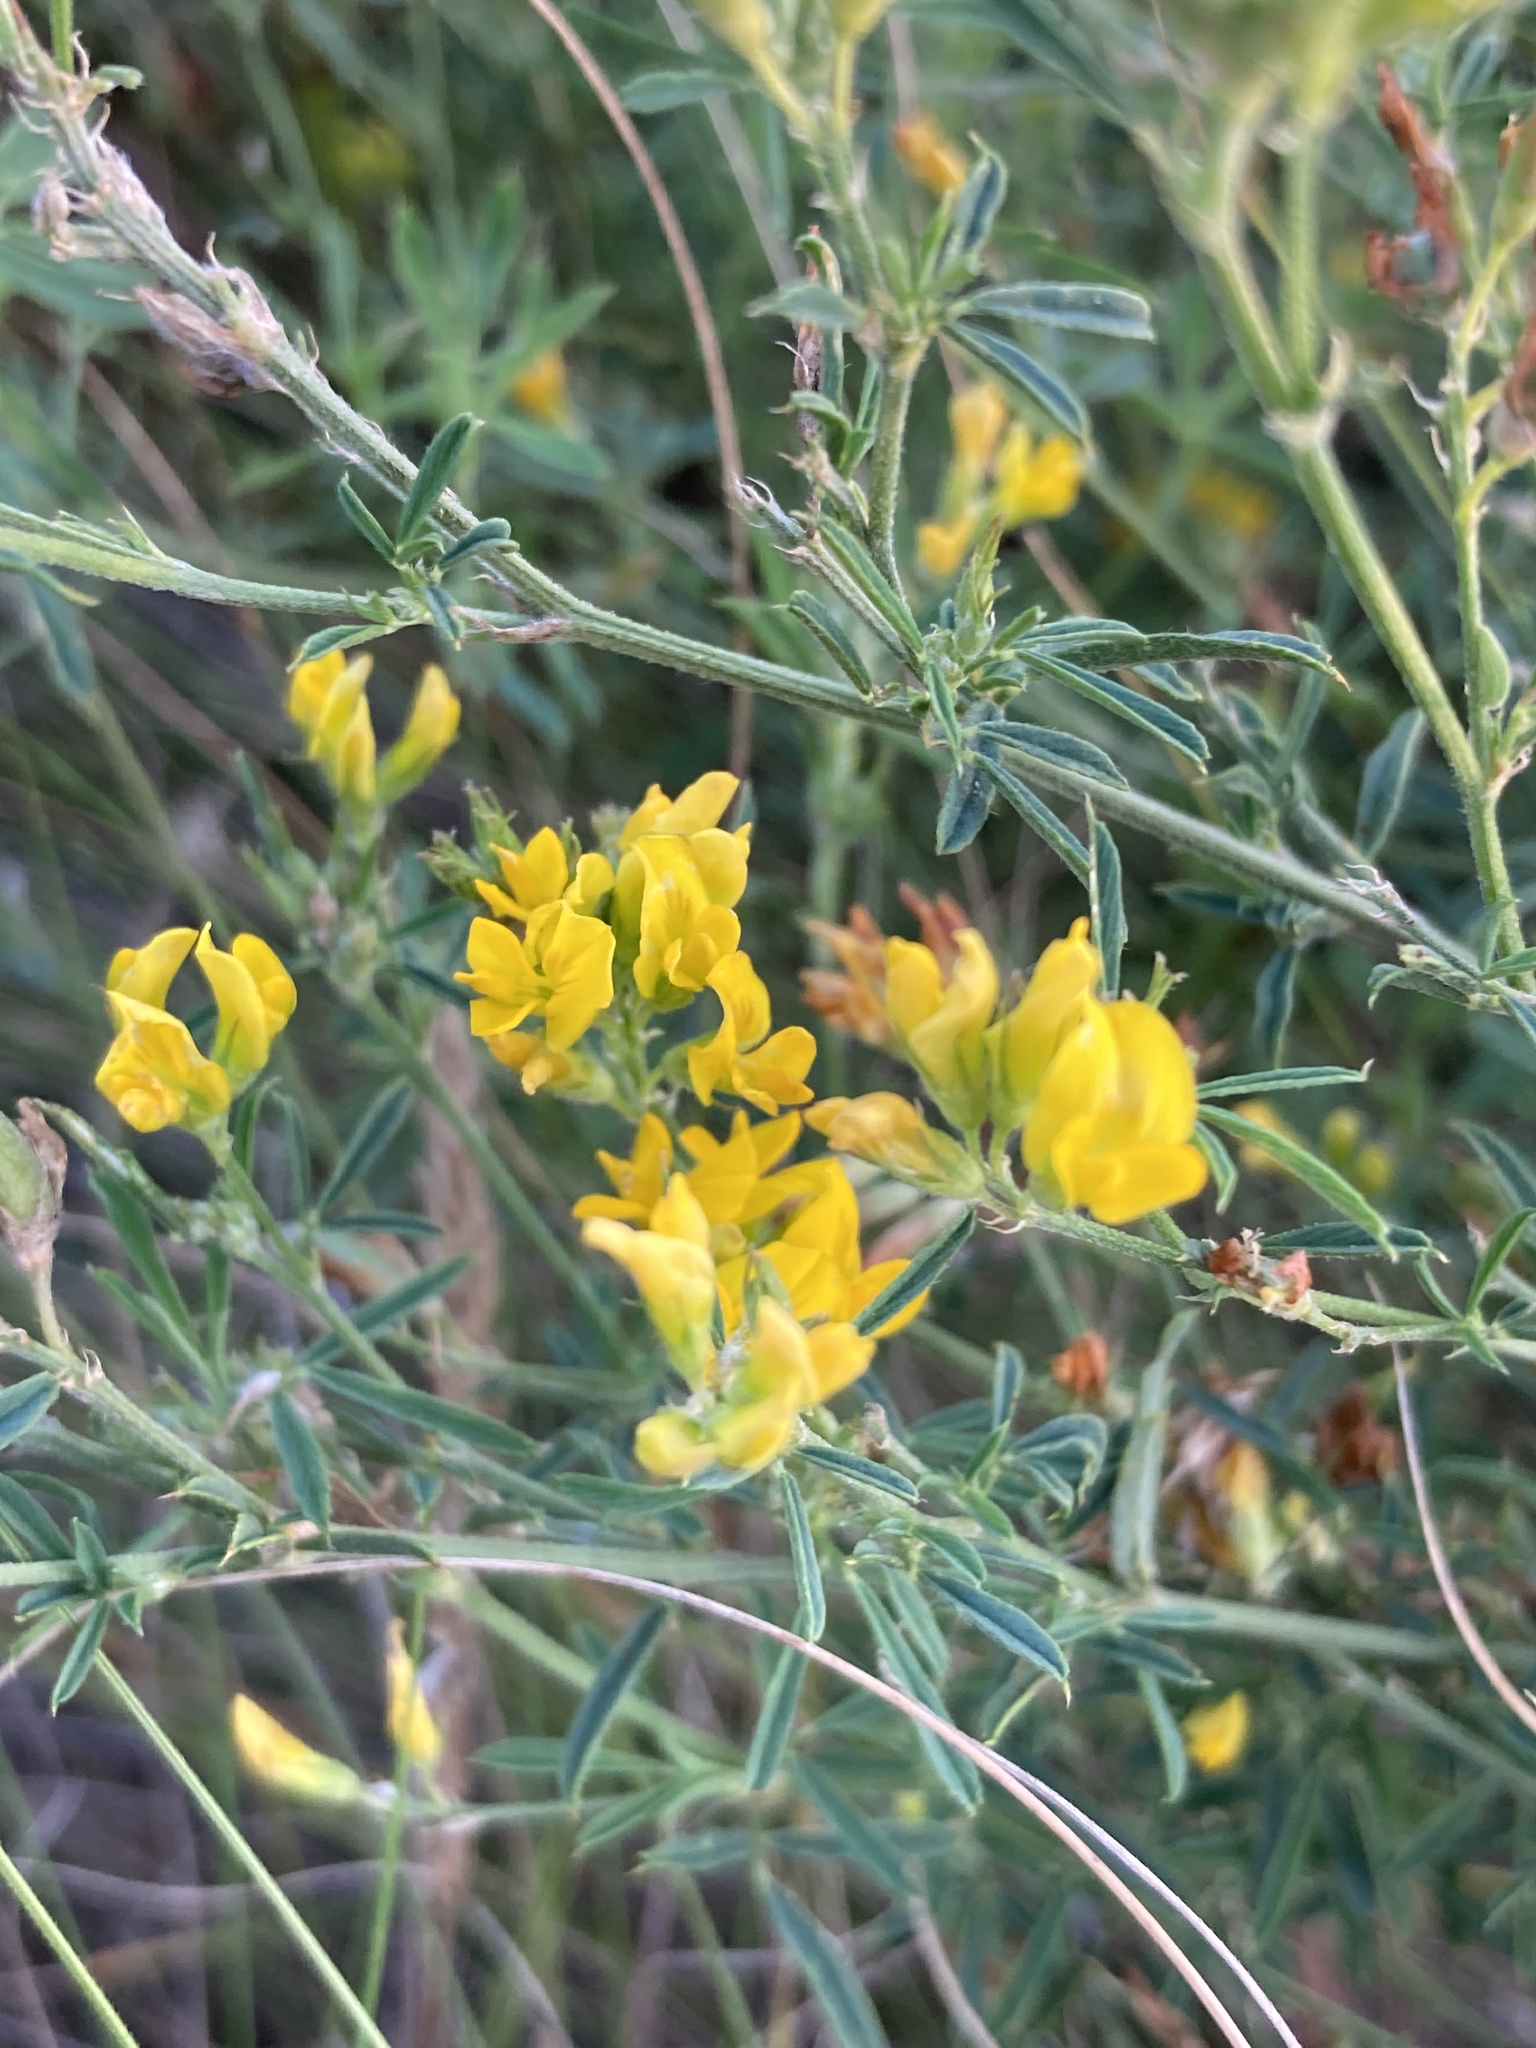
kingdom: Plantae
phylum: Tracheophyta
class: Magnoliopsida
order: Fabales
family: Fabaceae
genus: Medicago
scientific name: Medicago falcata
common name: Sickle medick
